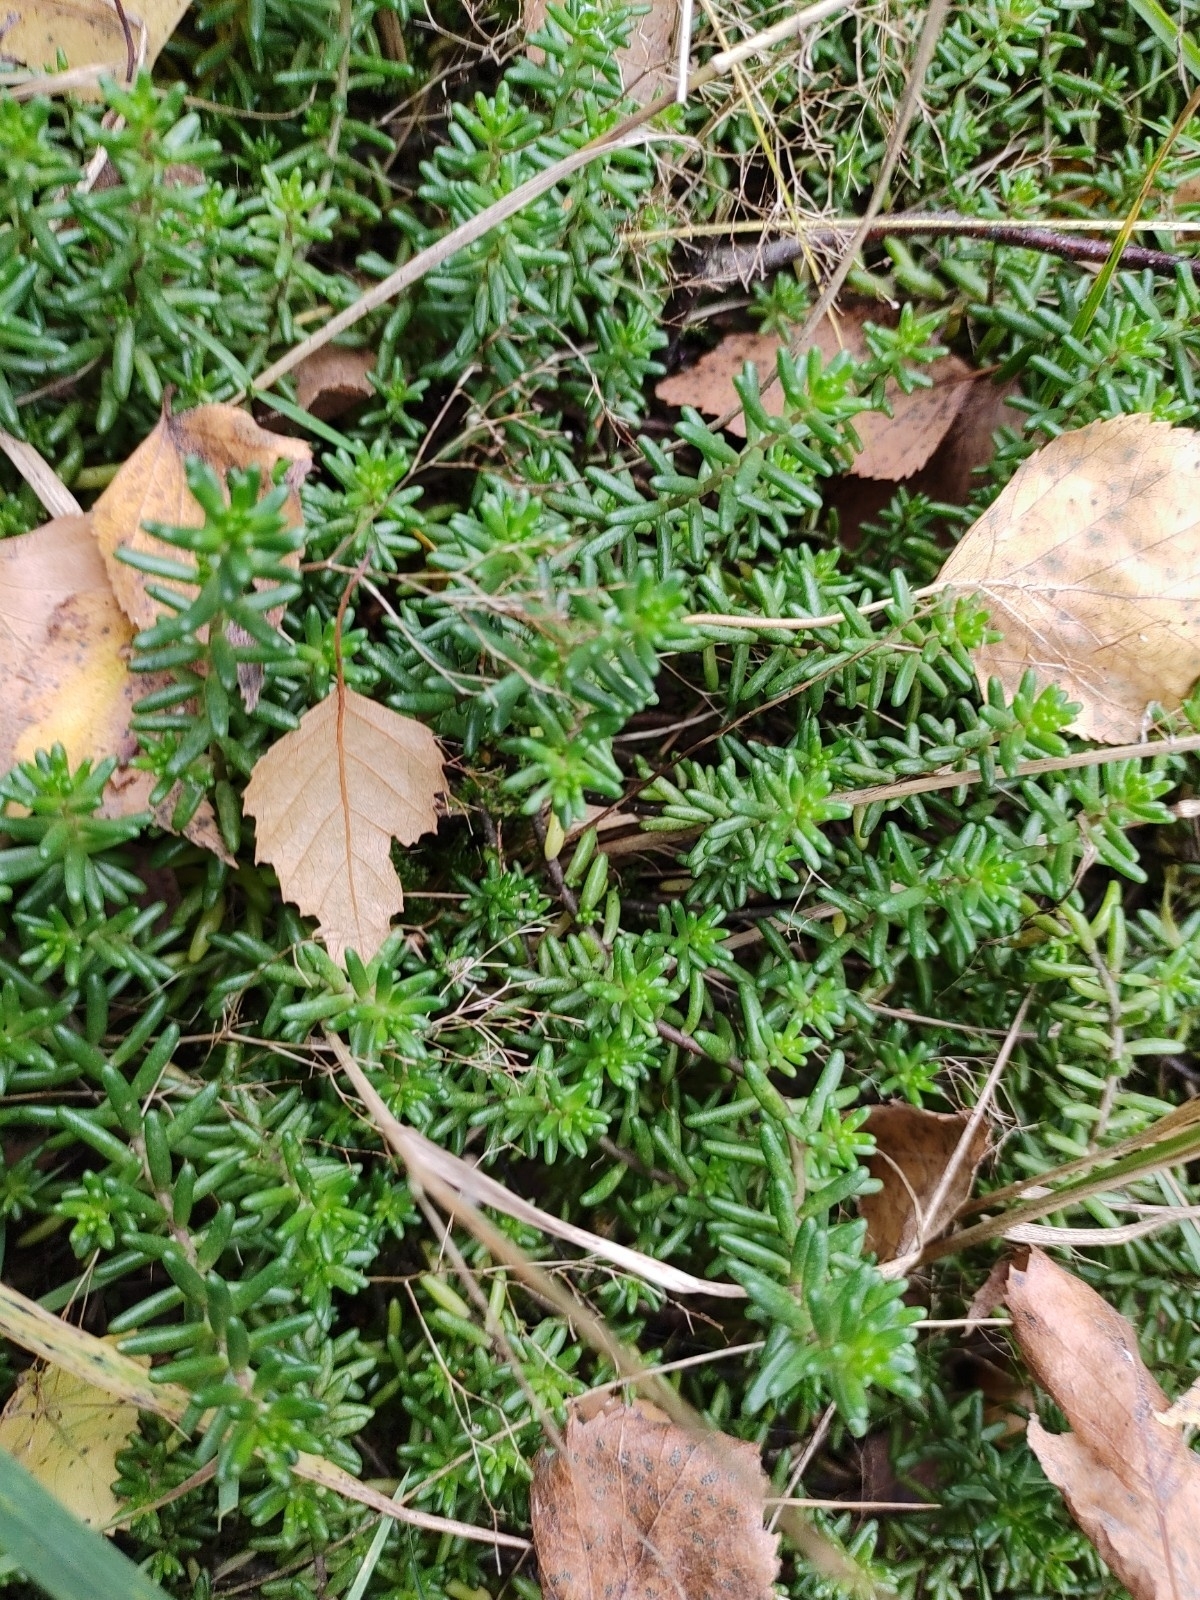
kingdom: Plantae
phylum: Tracheophyta
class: Magnoliopsida
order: Saxifragales
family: Crassulaceae
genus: Sedum
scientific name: Sedum album
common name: White stonecrop
